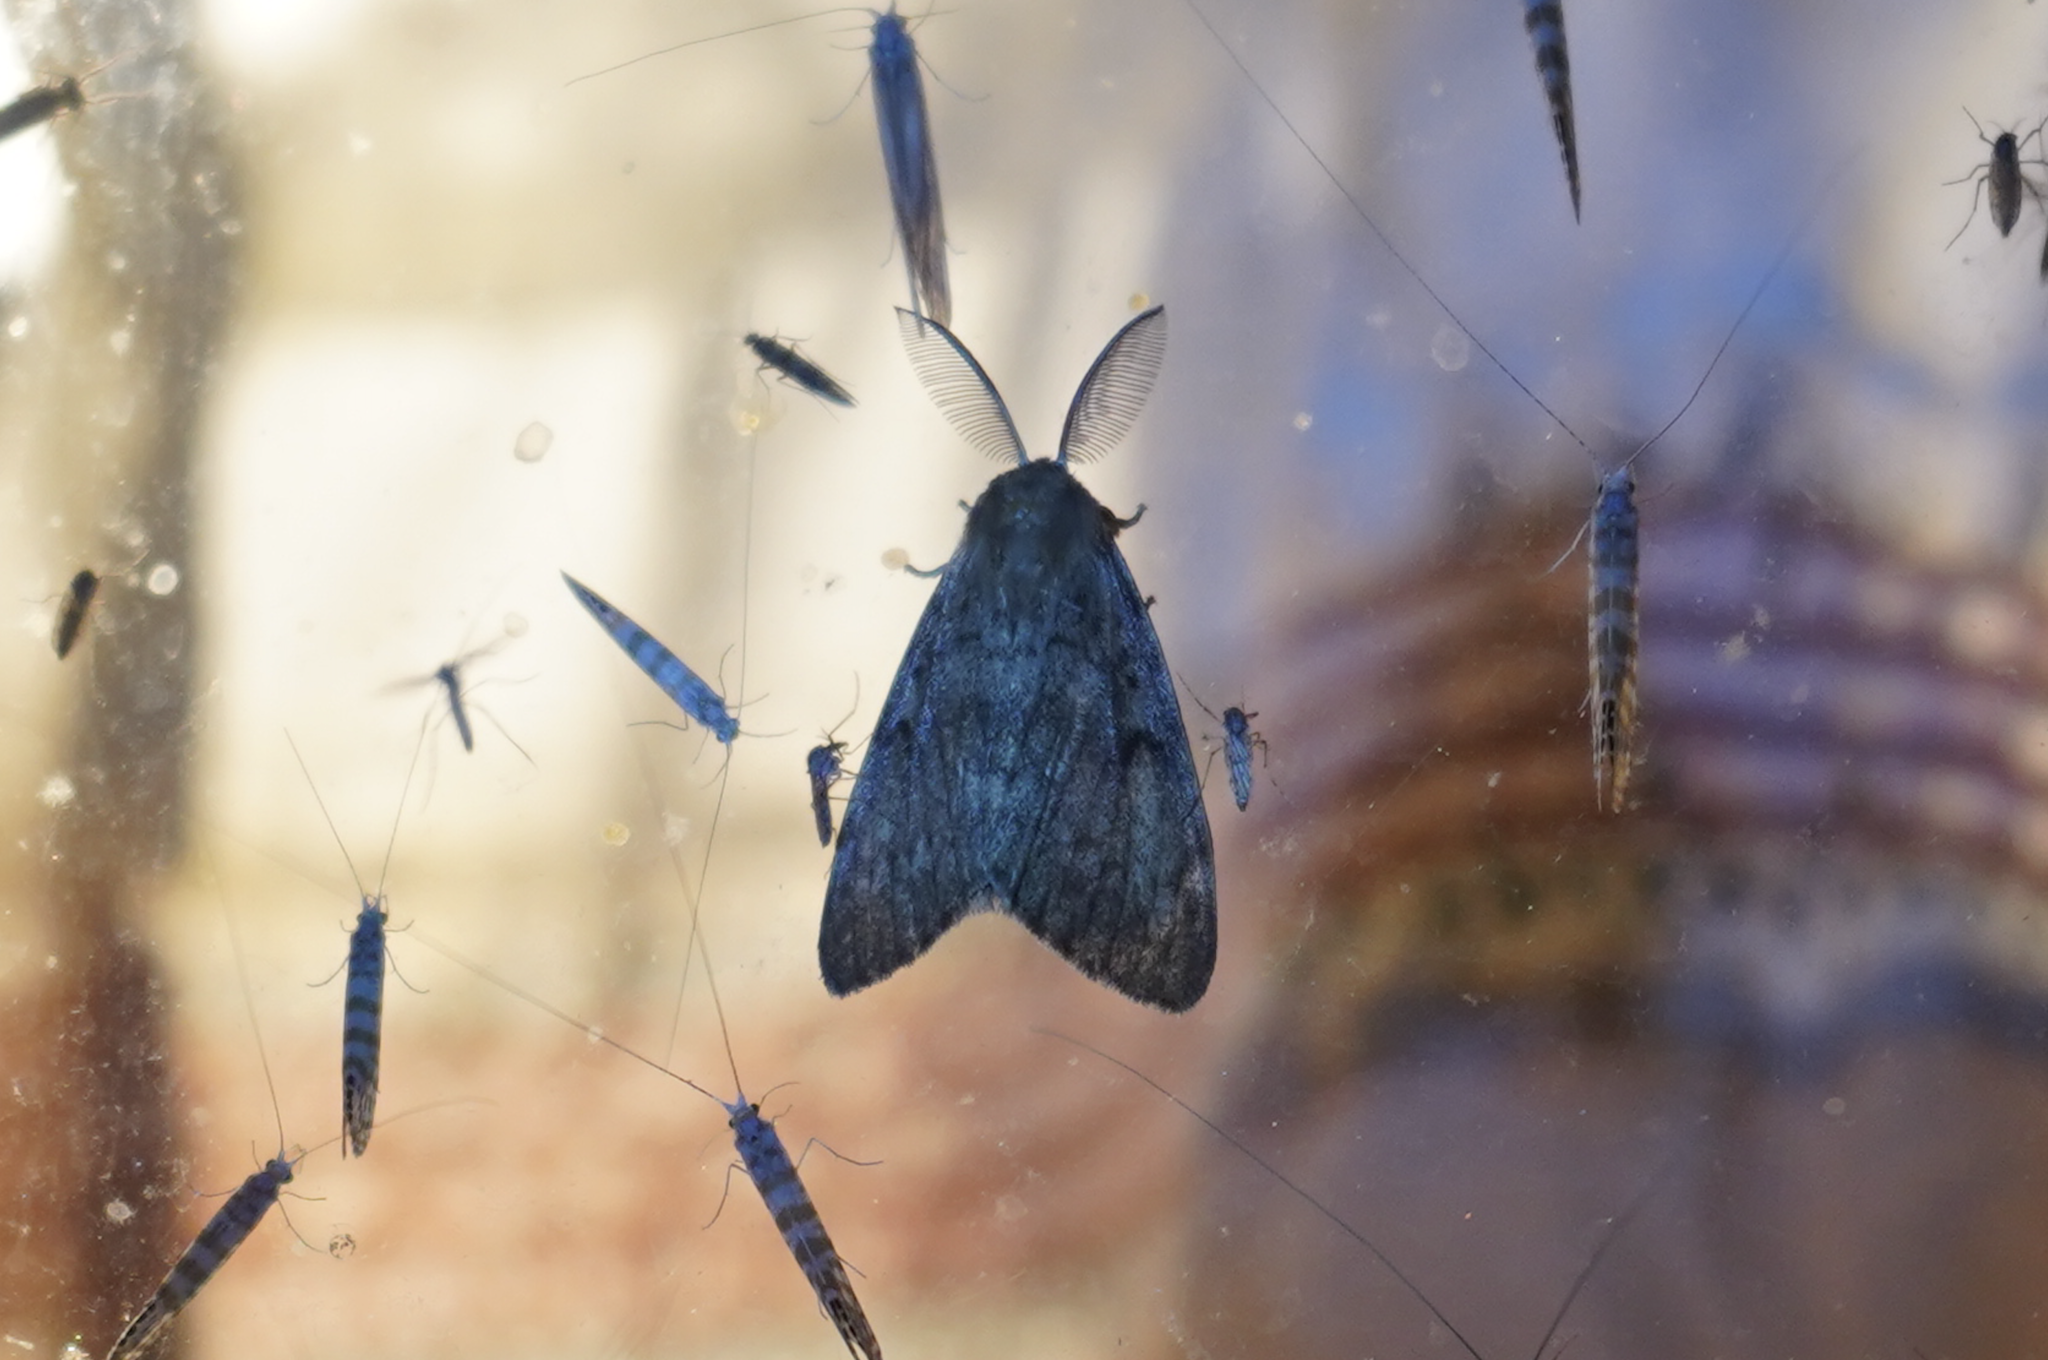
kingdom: Animalia
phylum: Arthropoda
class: Insecta
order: Lepidoptera
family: Erebidae
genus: Lymantria
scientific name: Lymantria dispar
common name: Gypsy moth
